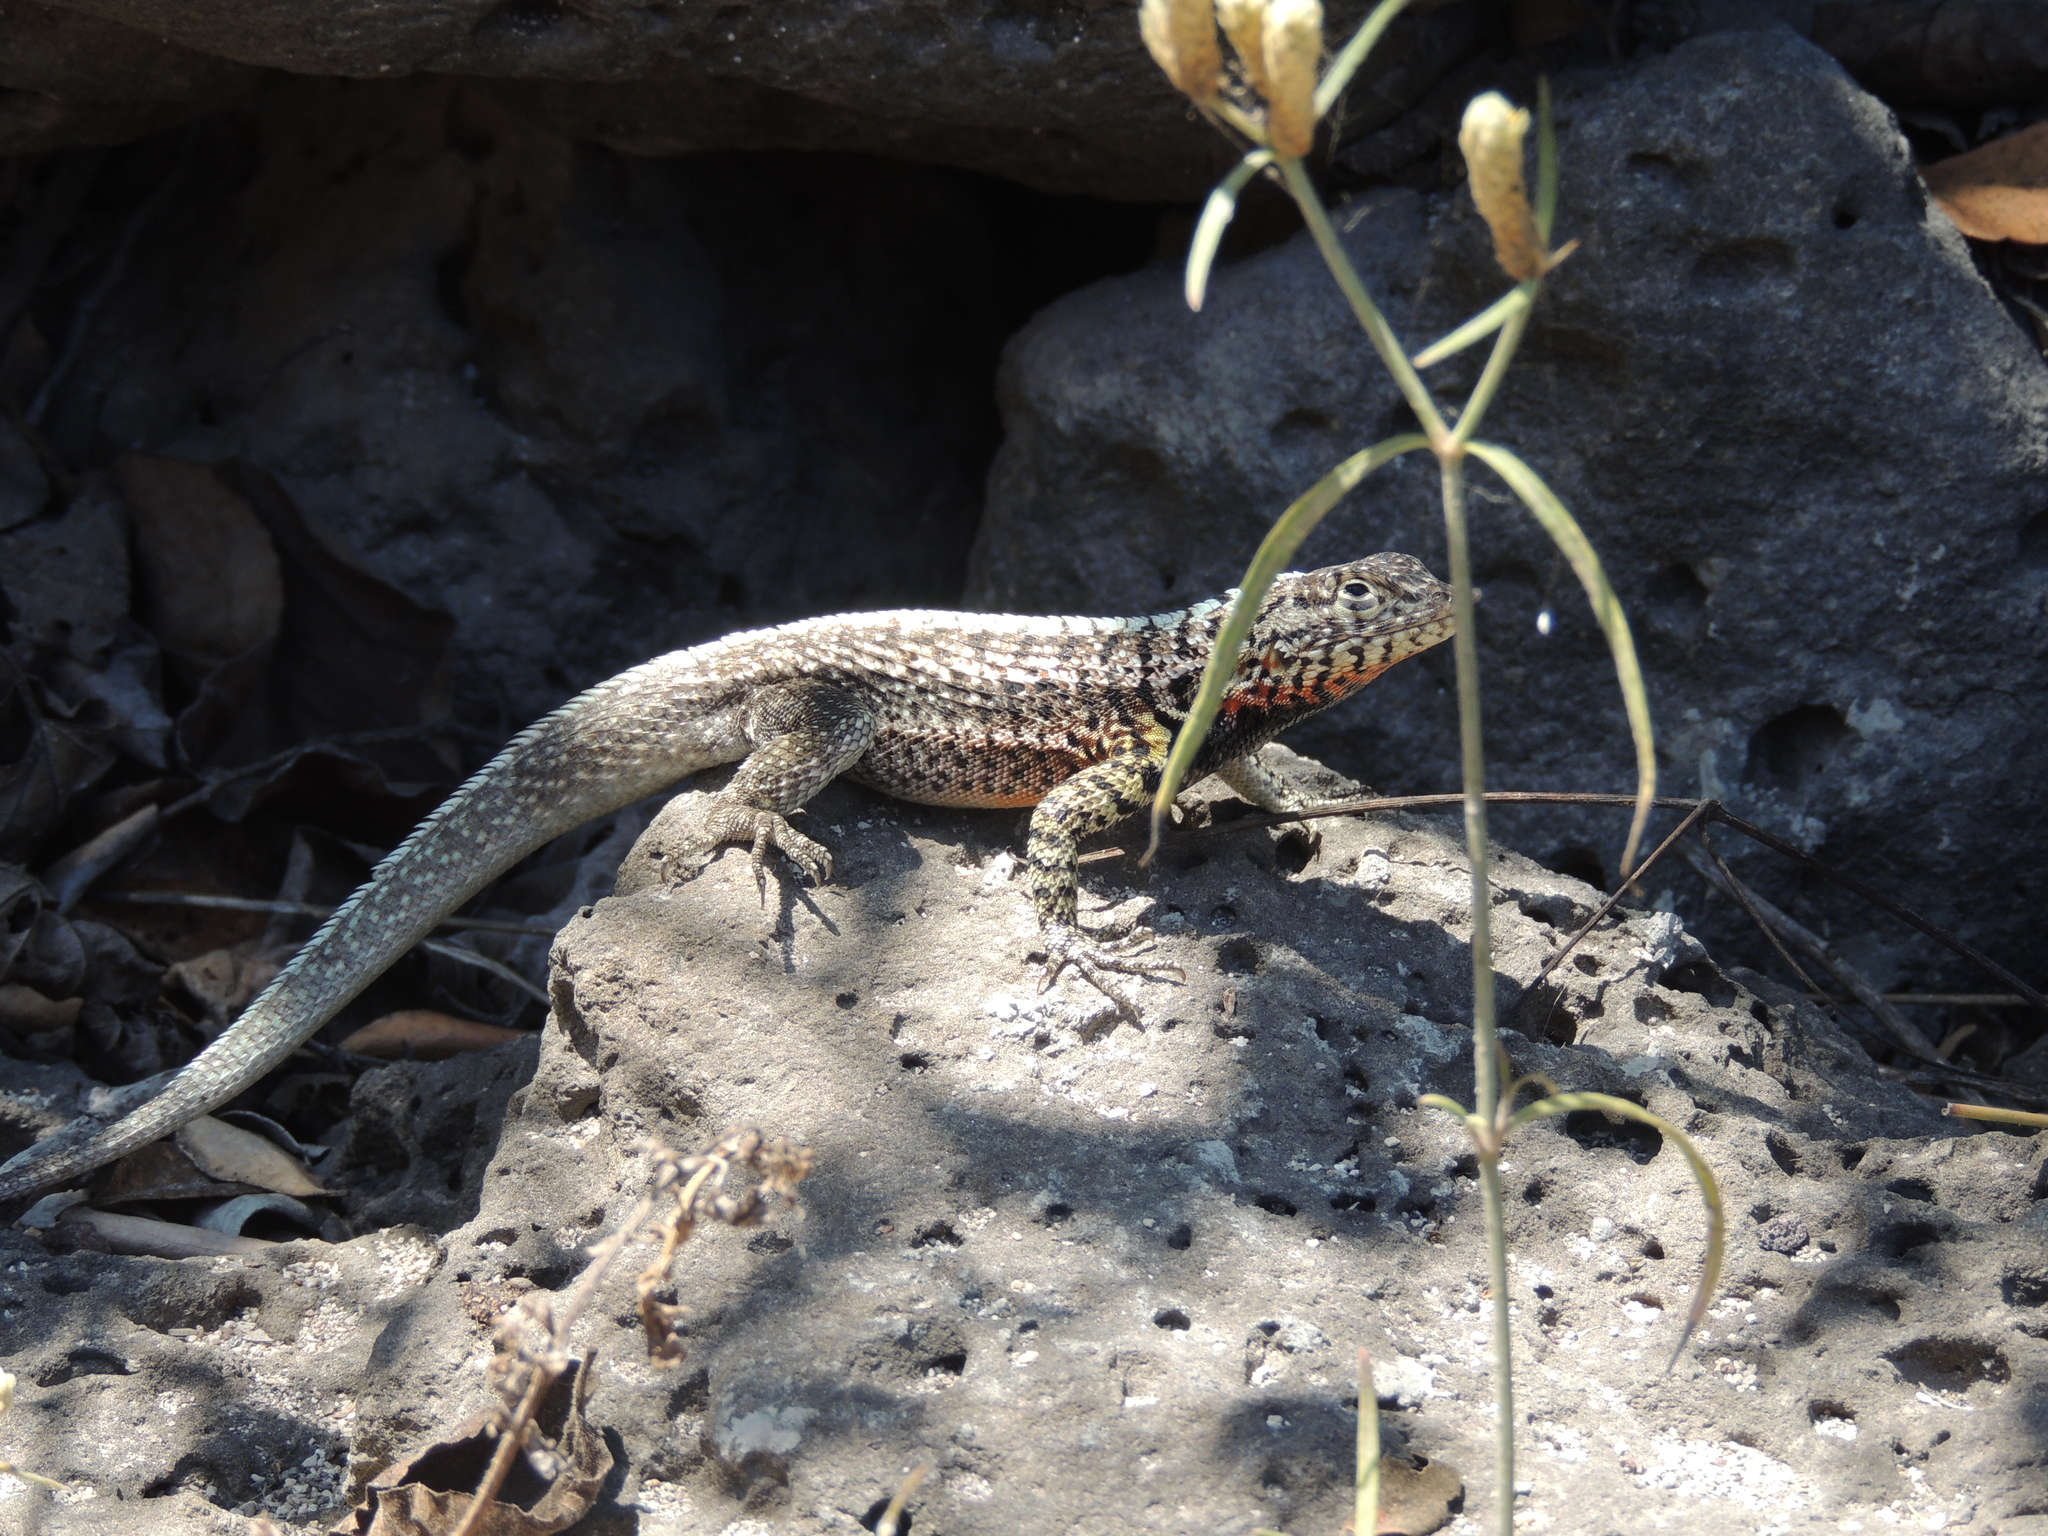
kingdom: Animalia
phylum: Chordata
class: Squamata
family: Tropiduridae
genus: Microlophus
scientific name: Microlophus indefatigabilis
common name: Galapagos lava lizard
